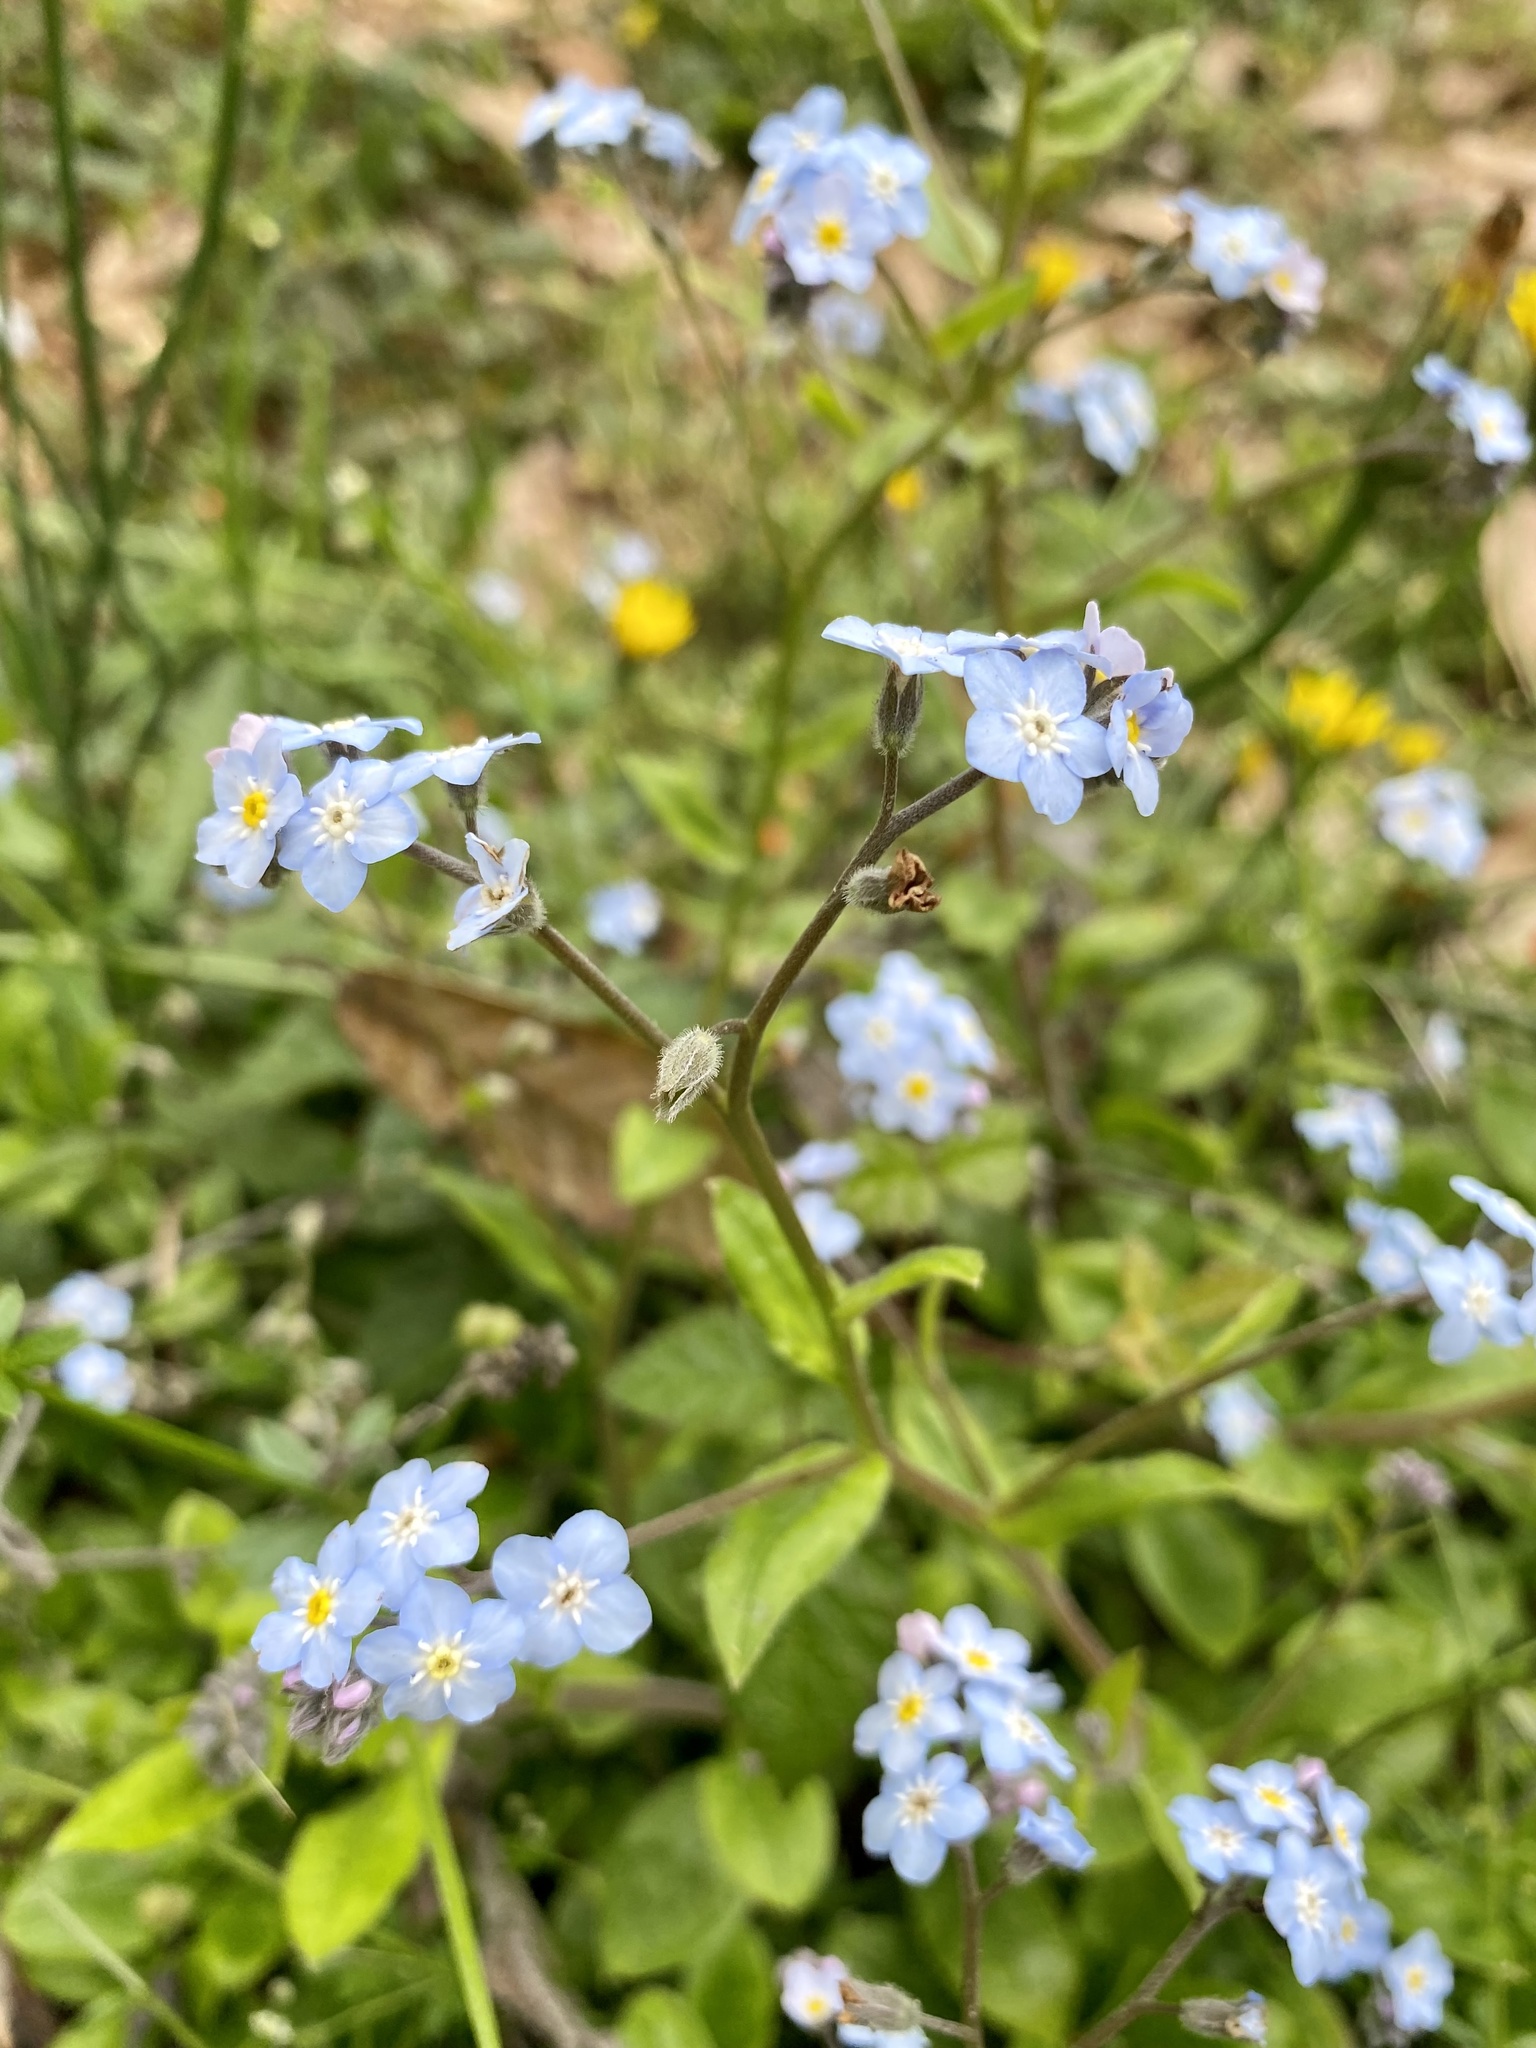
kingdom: Plantae
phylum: Tracheophyta
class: Magnoliopsida
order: Boraginales
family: Boraginaceae
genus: Myosotis
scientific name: Myosotis latifolia
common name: Broadleaf forget-me-not
